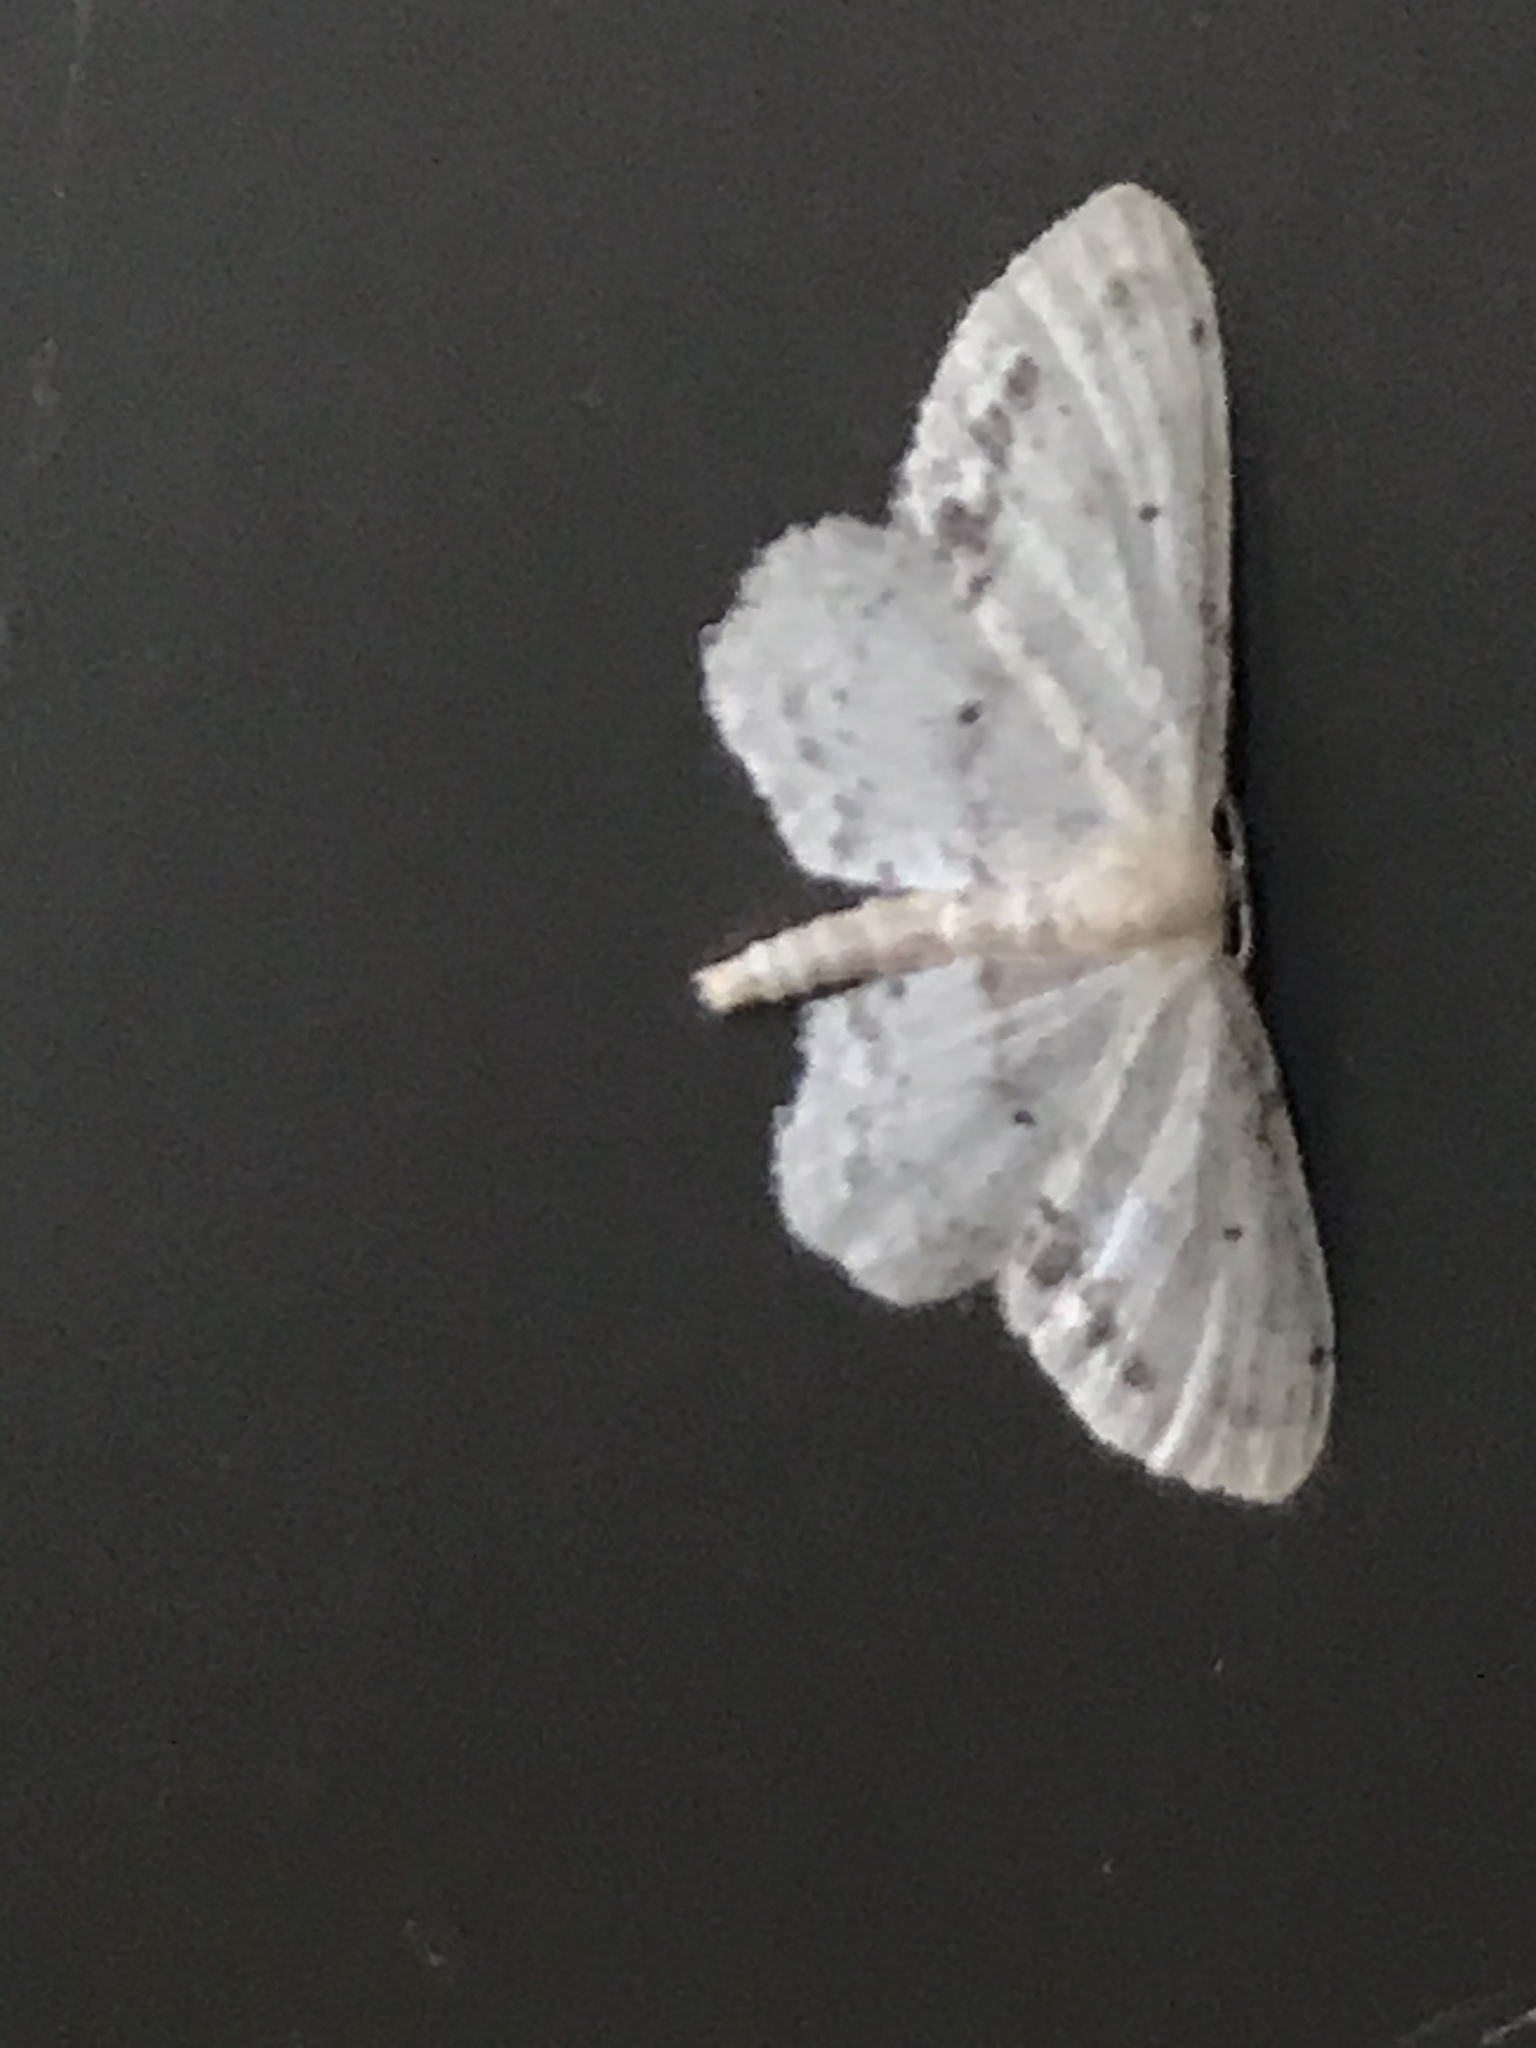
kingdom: Animalia
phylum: Arthropoda
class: Insecta
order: Lepidoptera
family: Geometridae
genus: Idaea
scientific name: Idaea dimidiata
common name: Single-dotted wave
